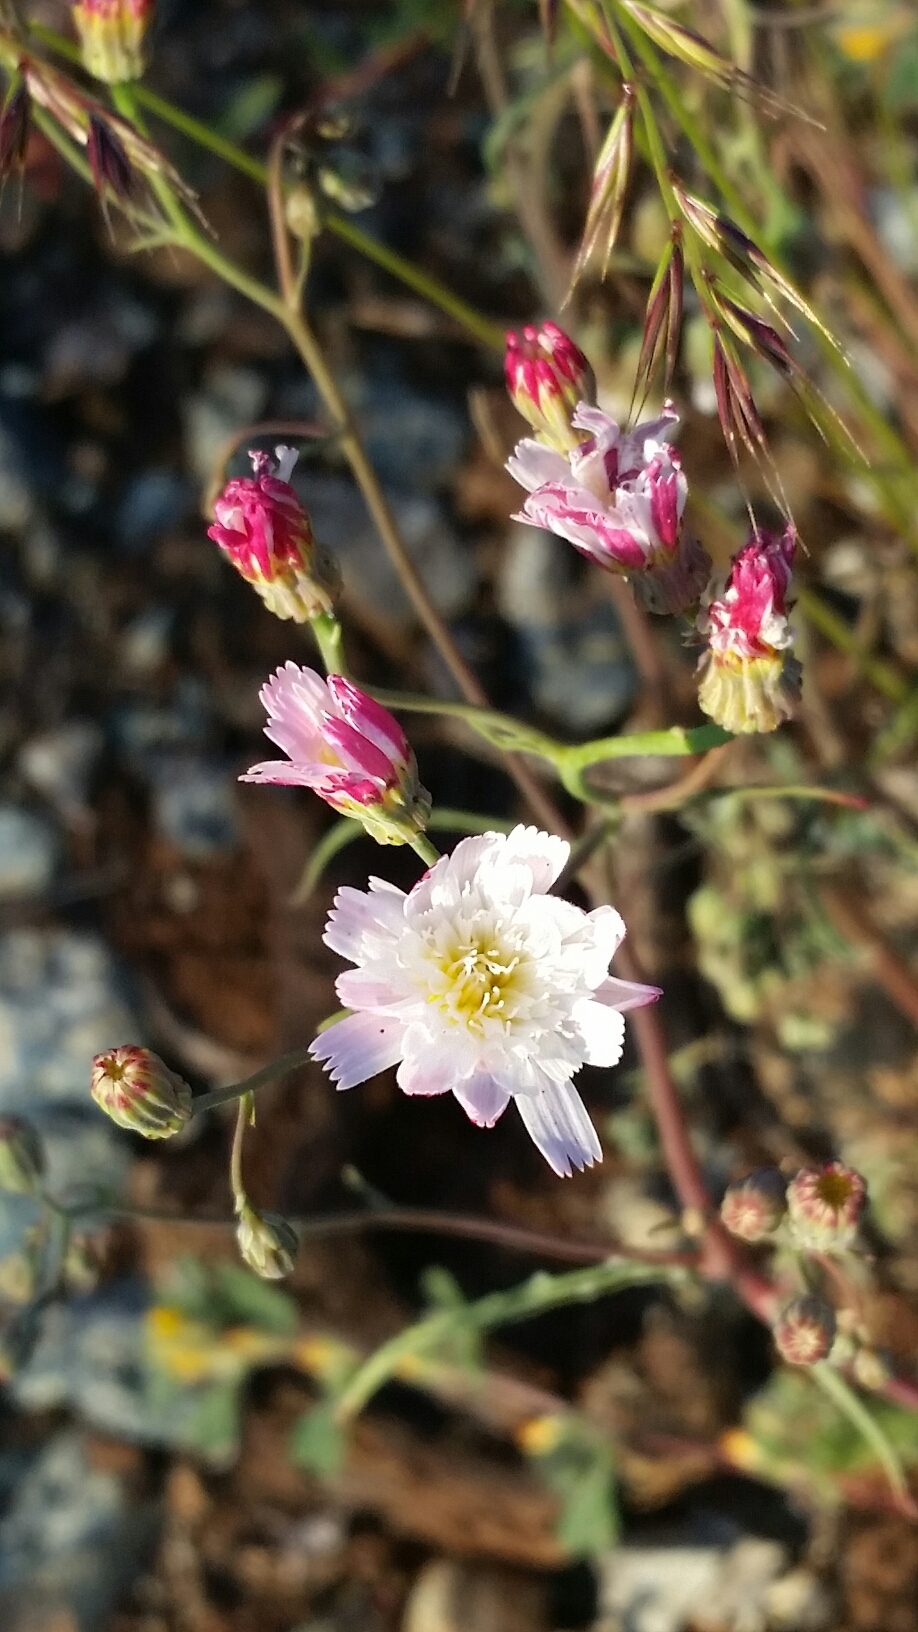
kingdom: Plantae
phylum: Tracheophyta
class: Magnoliopsida
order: Asterales
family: Asteraceae
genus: Malacothrix
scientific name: Malacothrix floccifera
